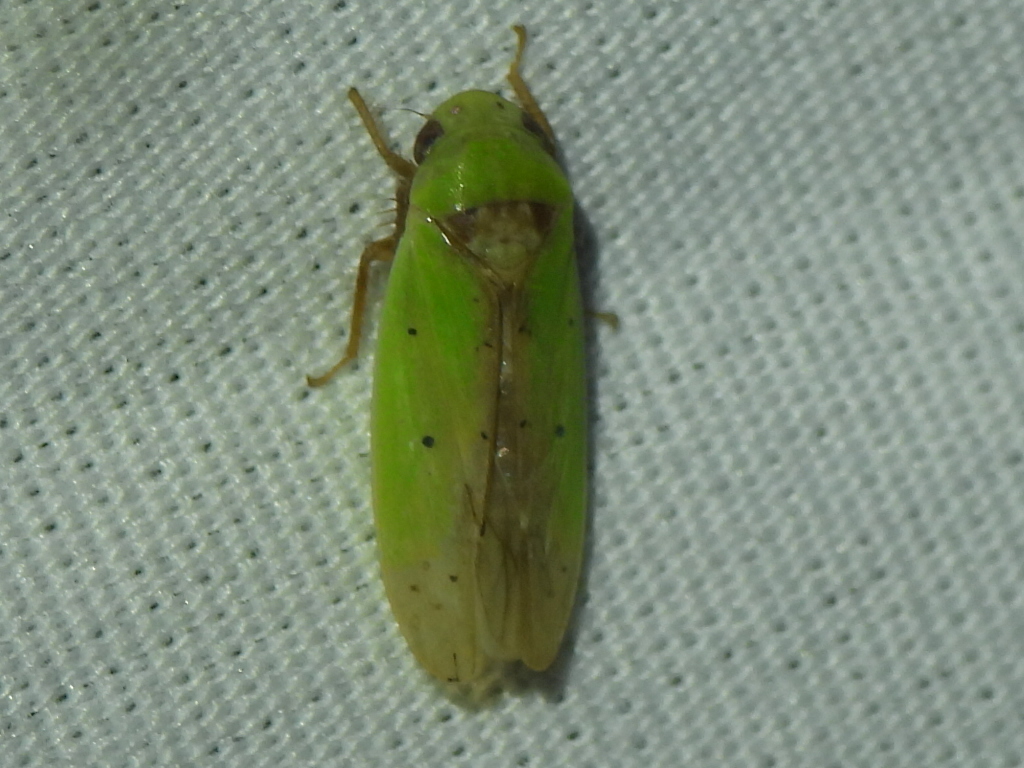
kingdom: Animalia
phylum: Arthropoda
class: Insecta
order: Hemiptera
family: Cicadellidae
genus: Ponana
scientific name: Ponana
